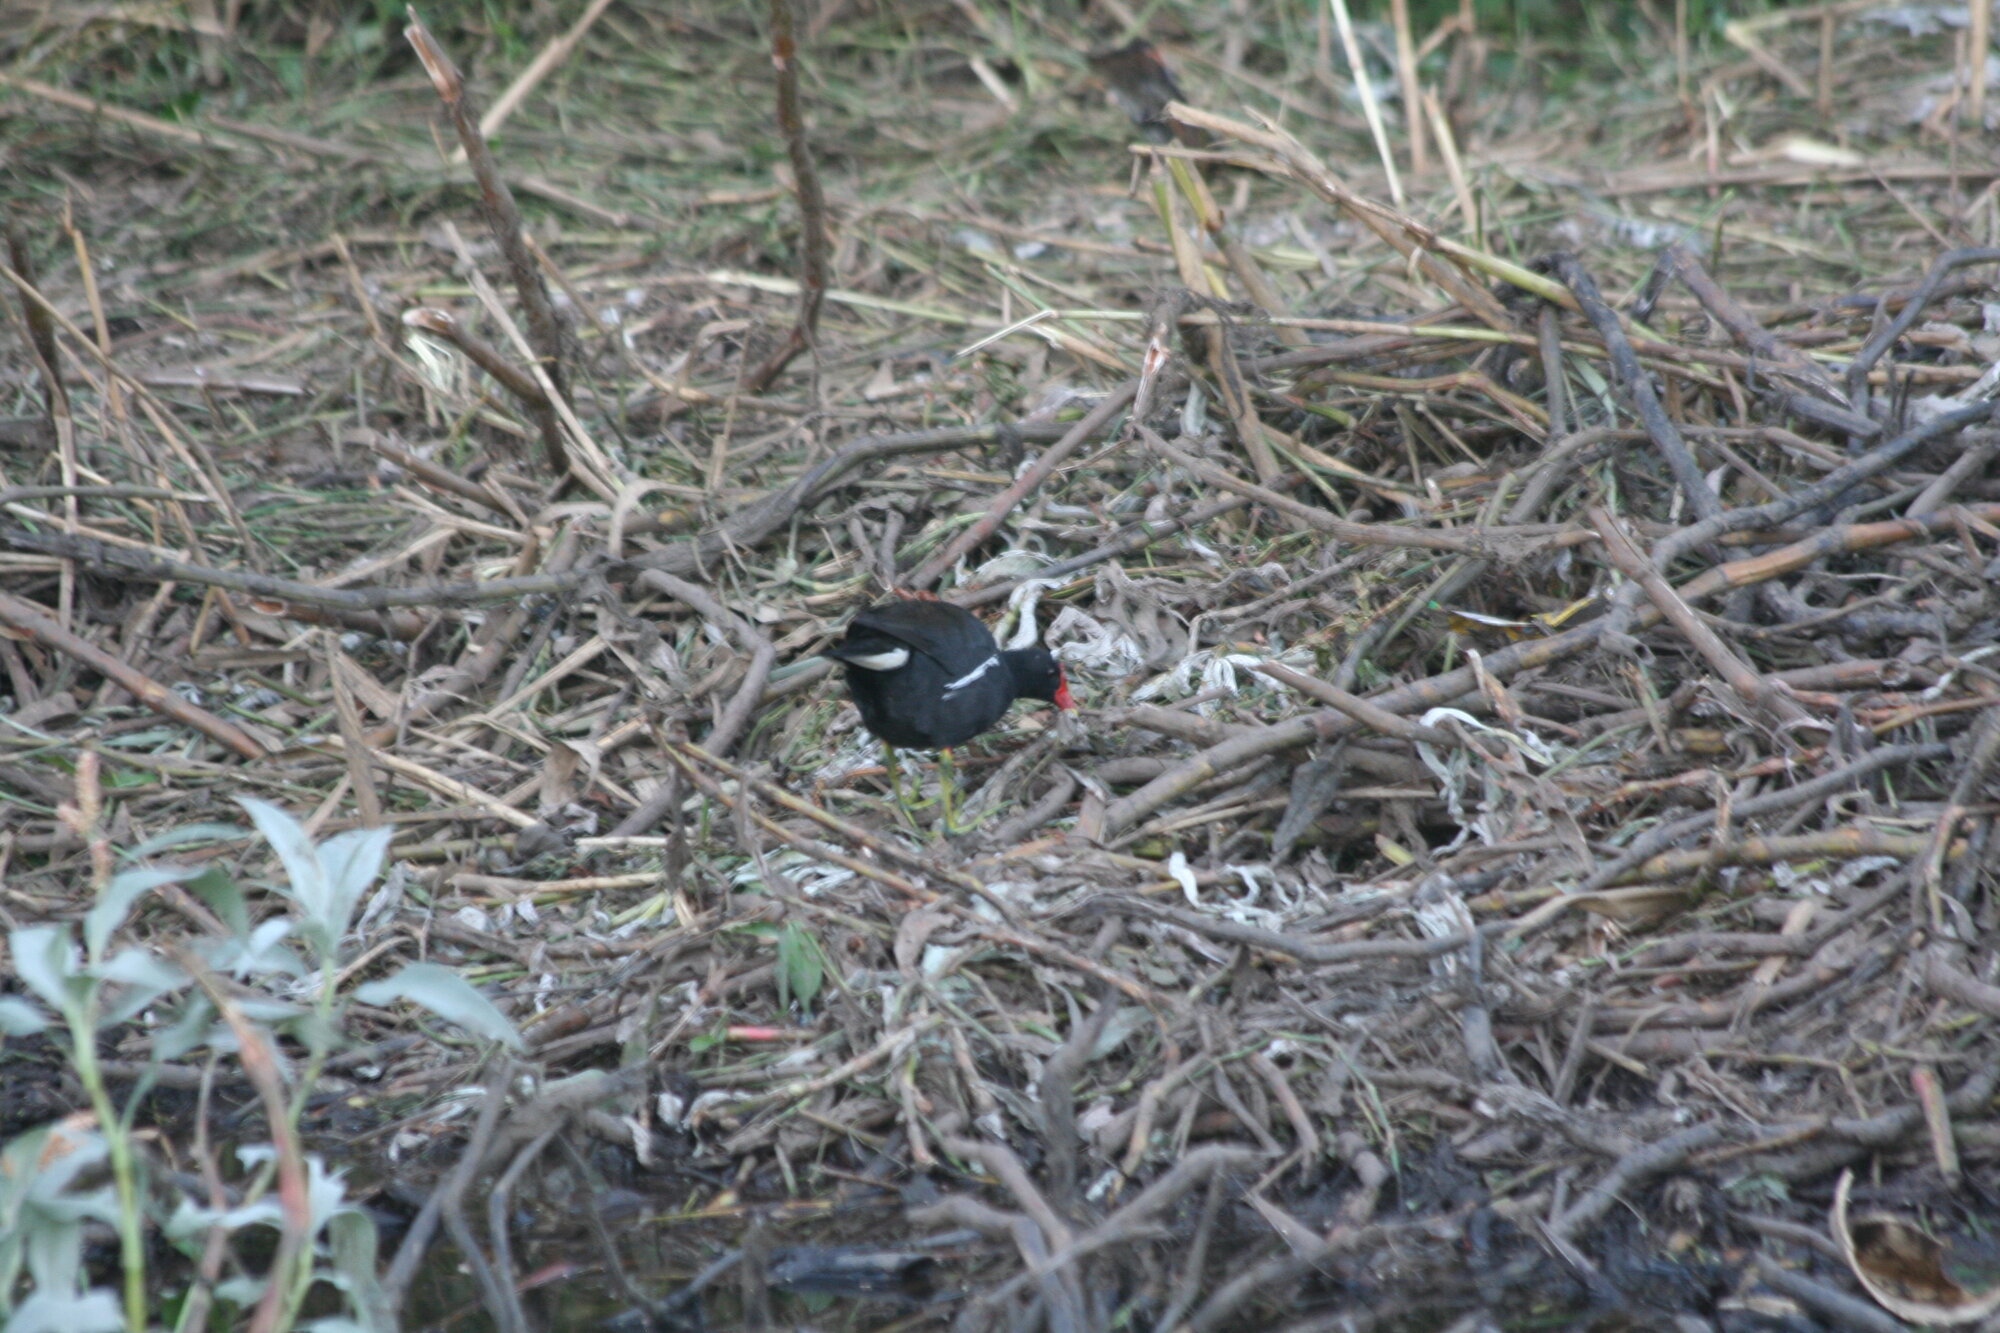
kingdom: Animalia
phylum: Chordata
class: Aves
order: Gruiformes
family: Rallidae
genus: Gallinula
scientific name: Gallinula chloropus
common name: Common moorhen
